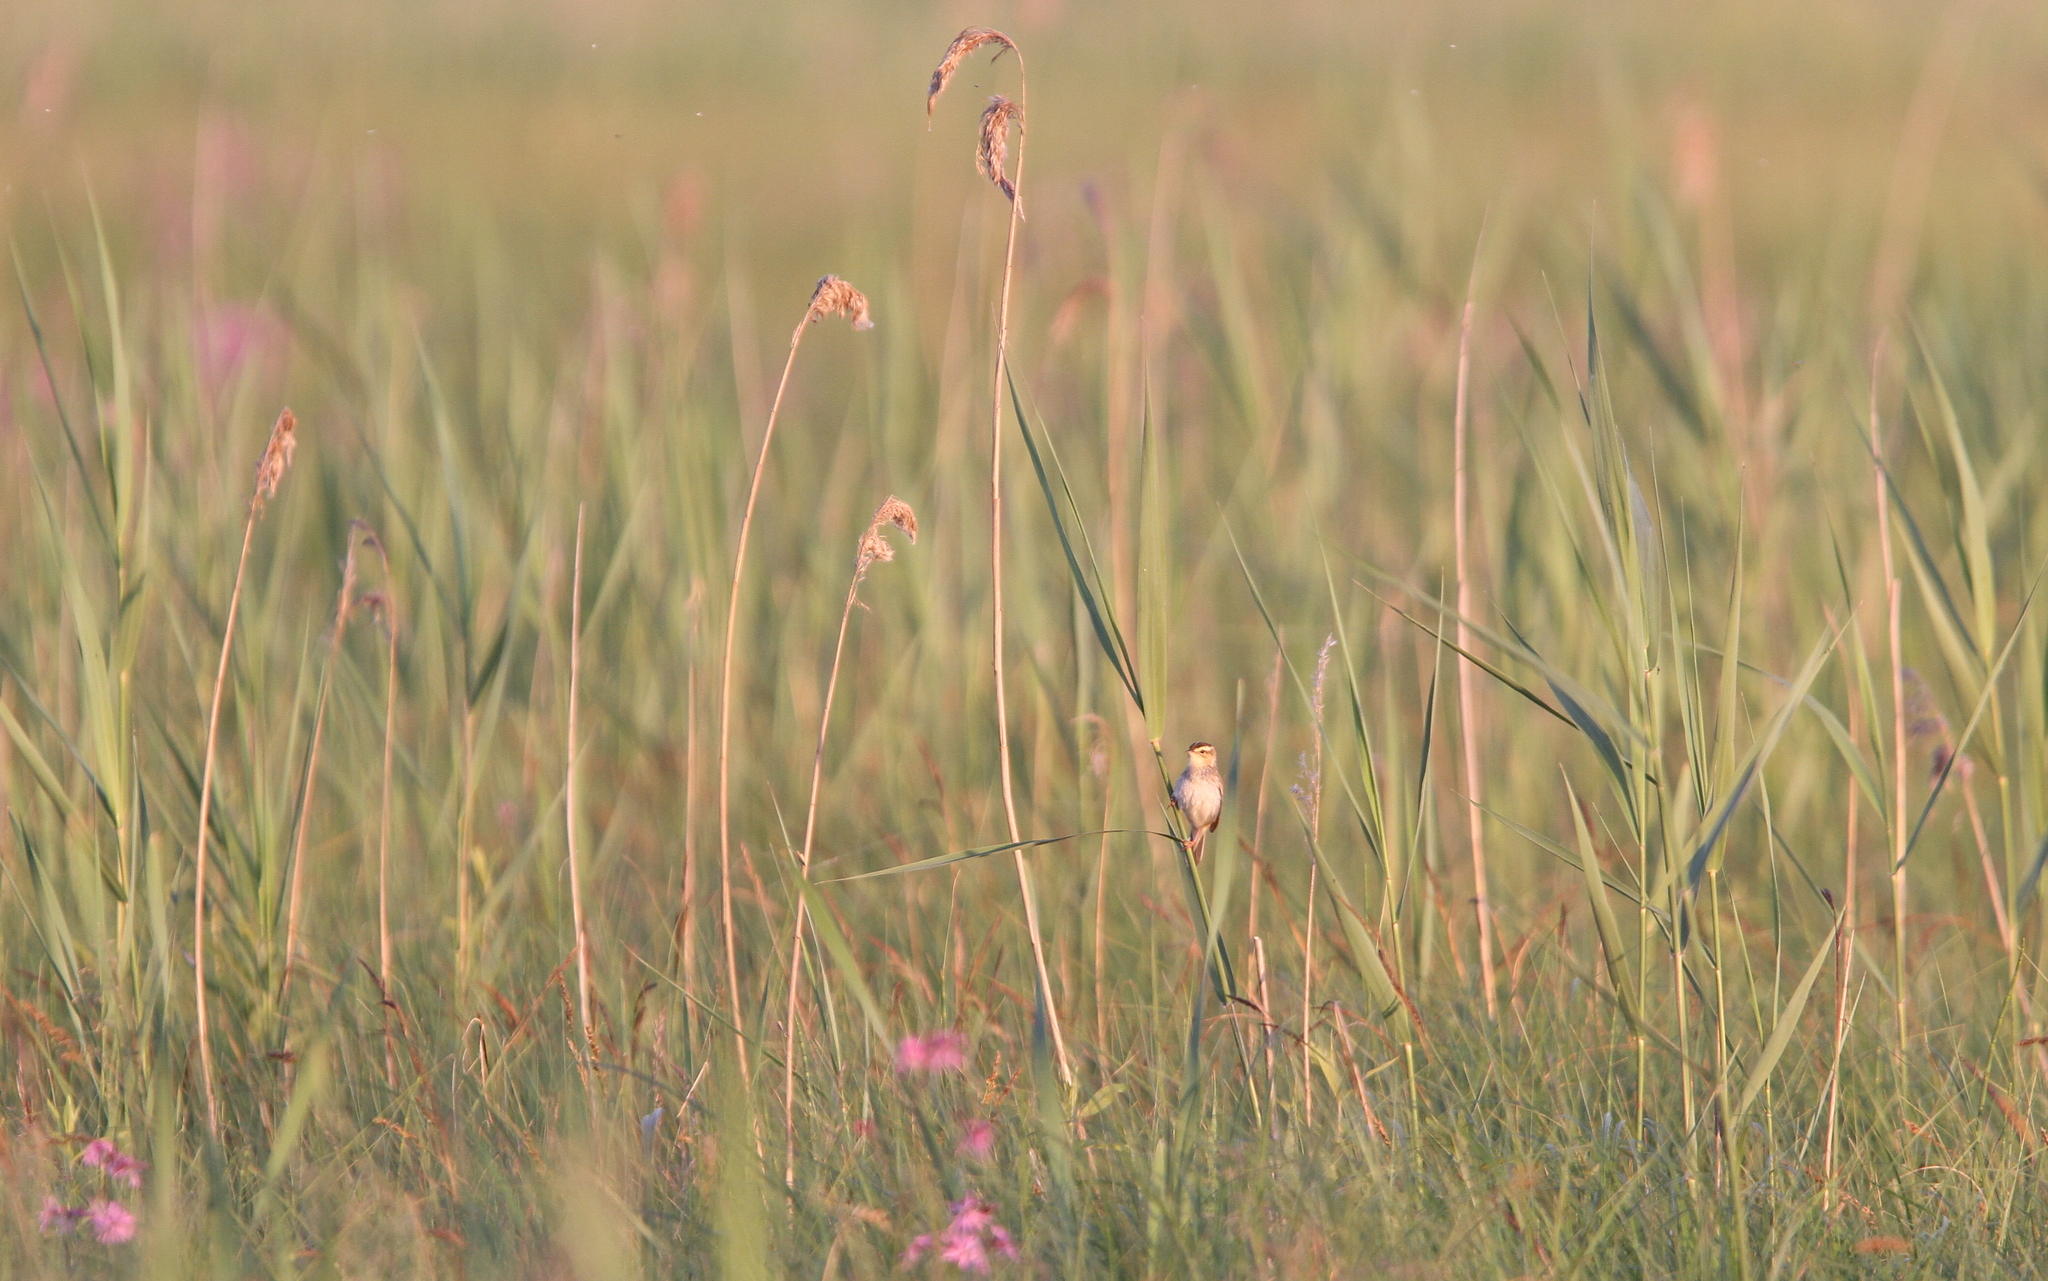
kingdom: Animalia
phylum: Chordata
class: Aves
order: Passeriformes
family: Acrocephalidae
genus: Acrocephalus
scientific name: Acrocephalus paludicola
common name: Aquatic warbler
